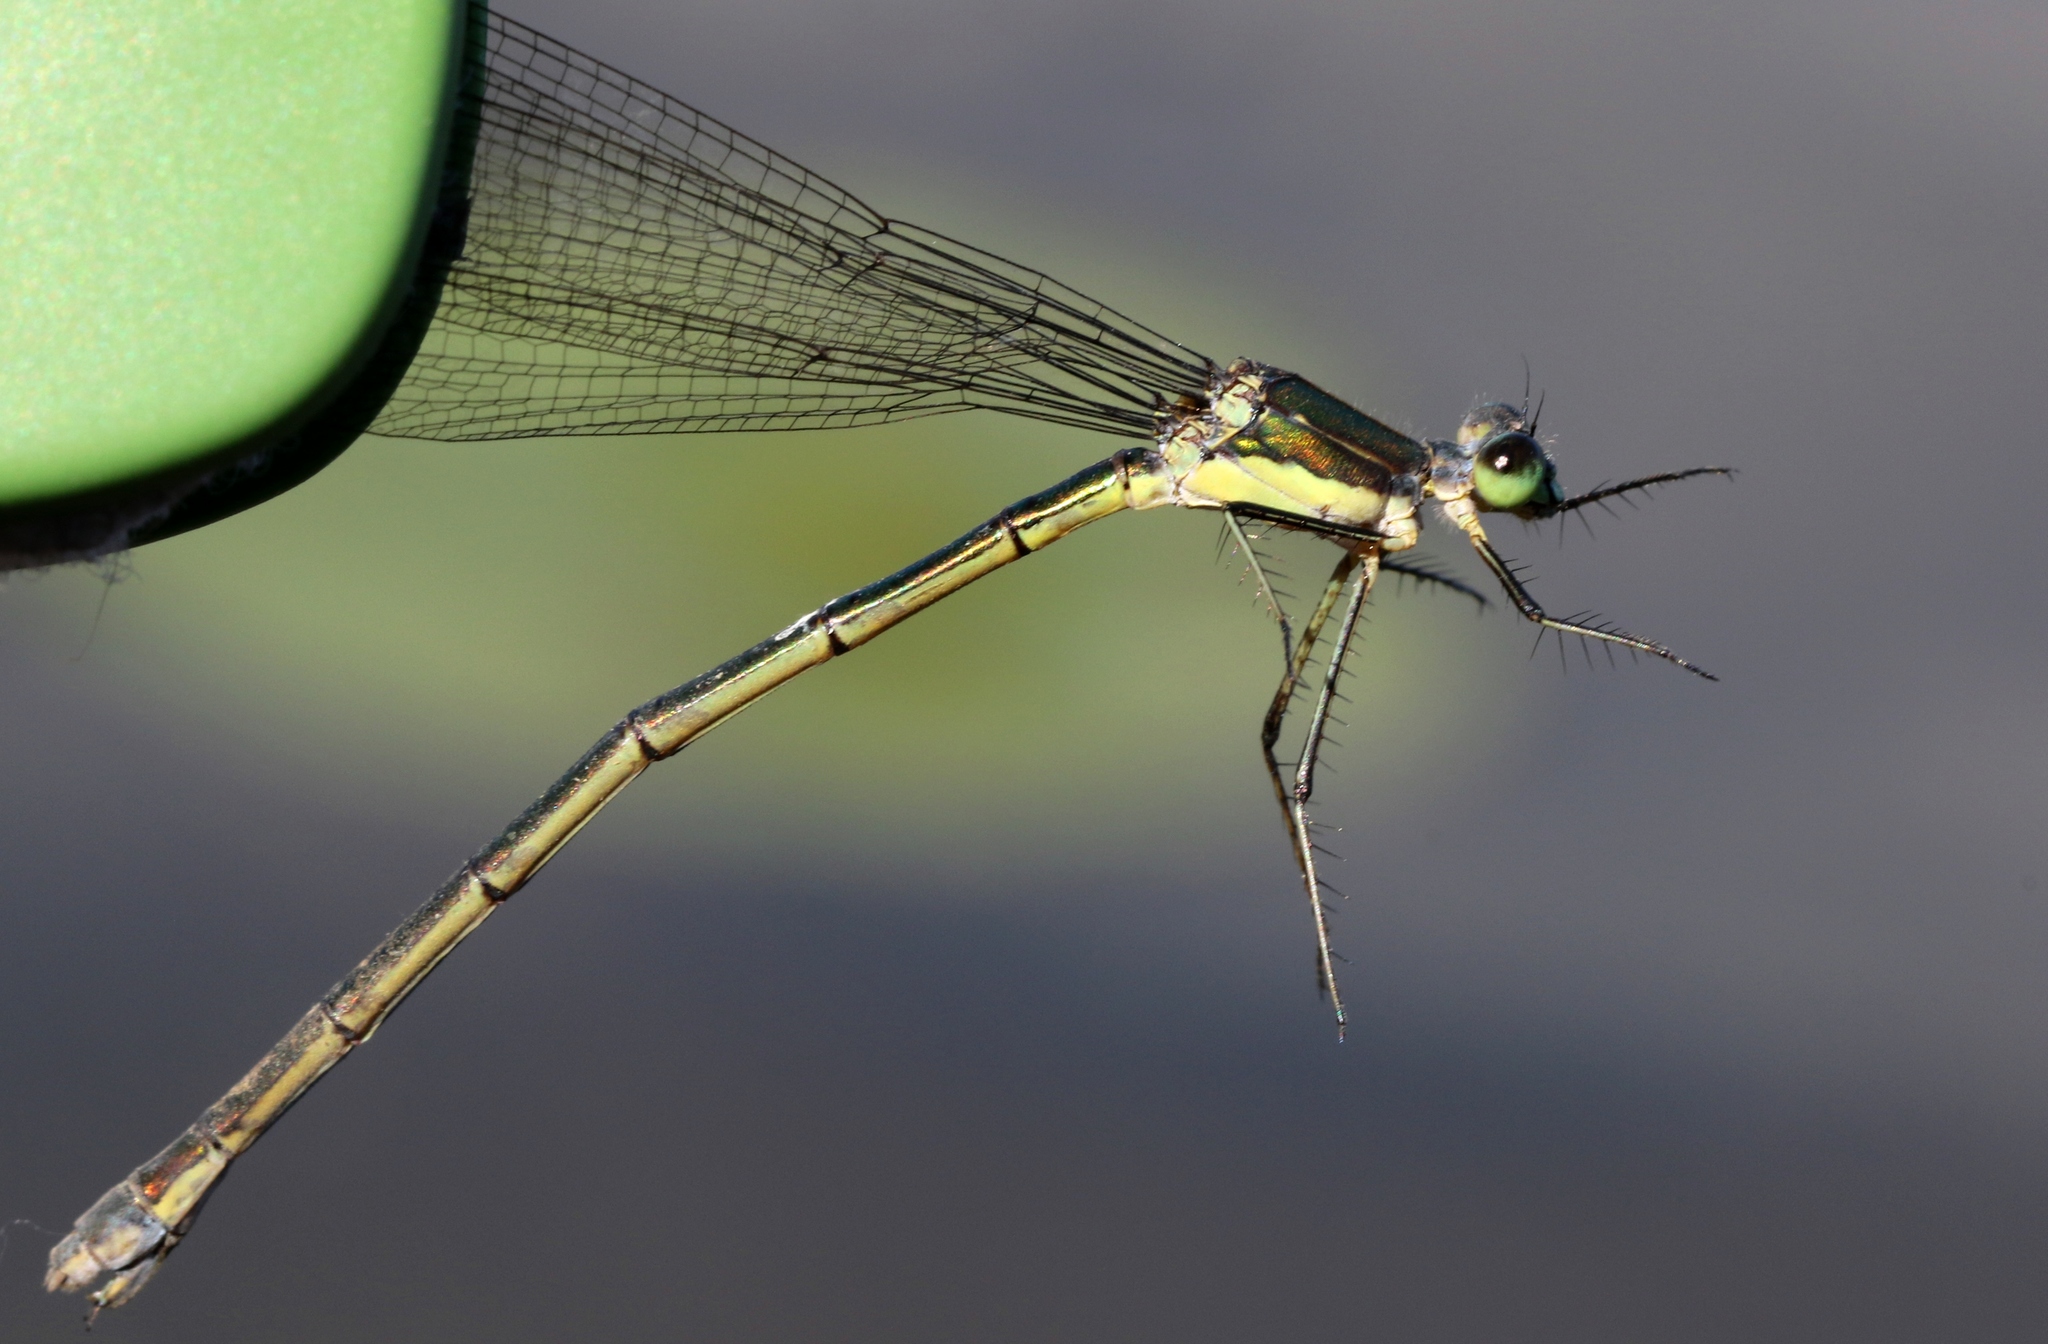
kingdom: Animalia
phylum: Arthropoda
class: Insecta
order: Odonata
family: Lestidae
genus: Lestes
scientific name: Lestes inaequalis
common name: Elegant spreadwing
